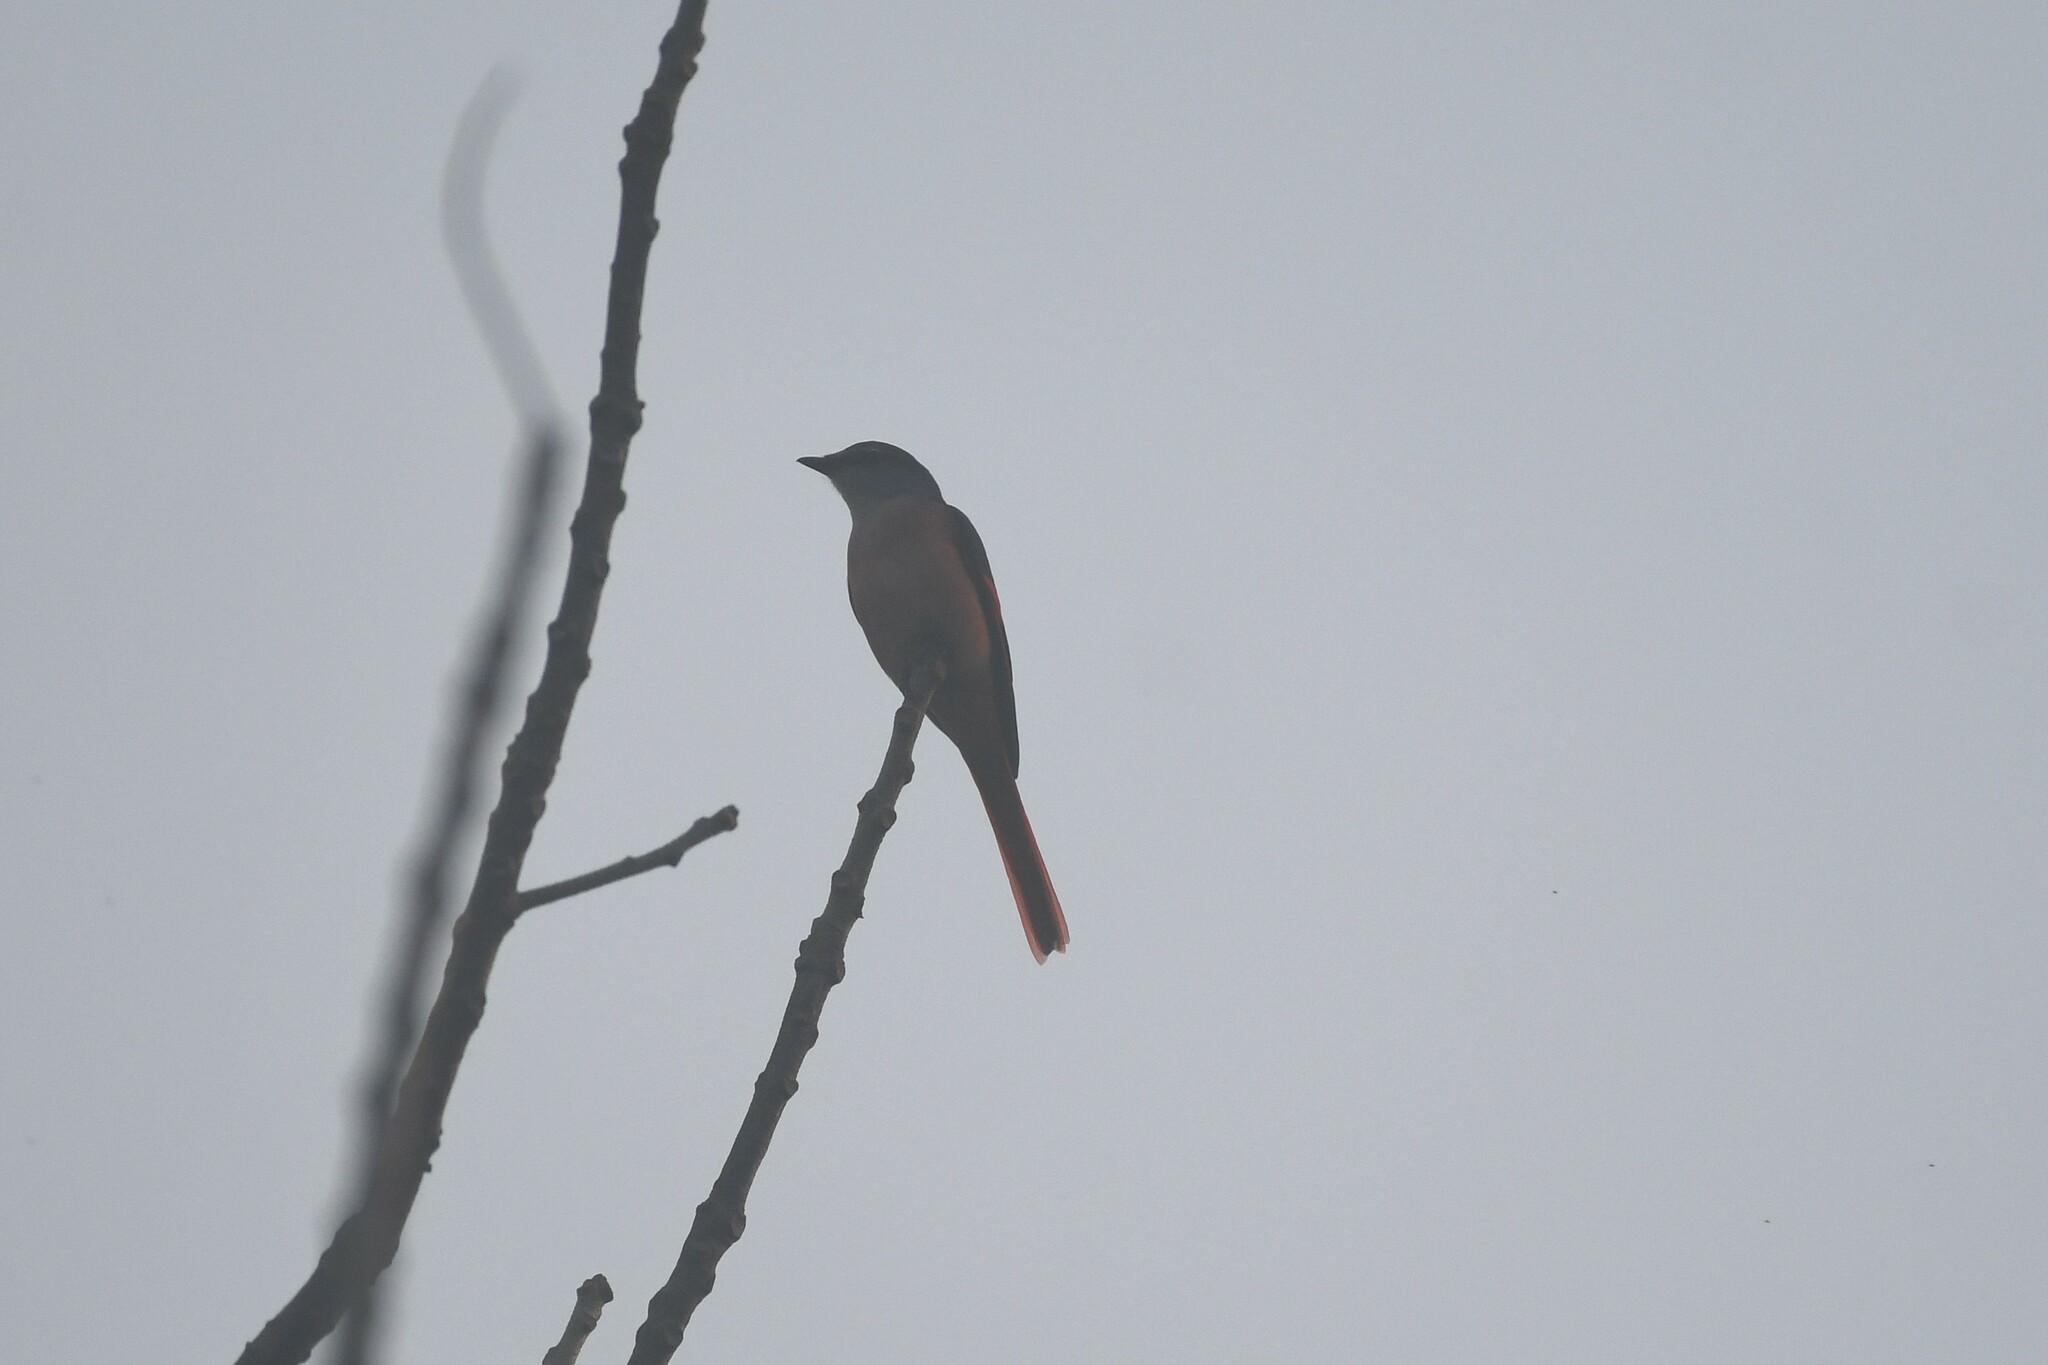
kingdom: Animalia
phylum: Chordata
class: Aves
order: Passeriformes
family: Campephagidae
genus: Pericrocotus
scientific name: Pericrocotus roseus
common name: Rosy minivet
